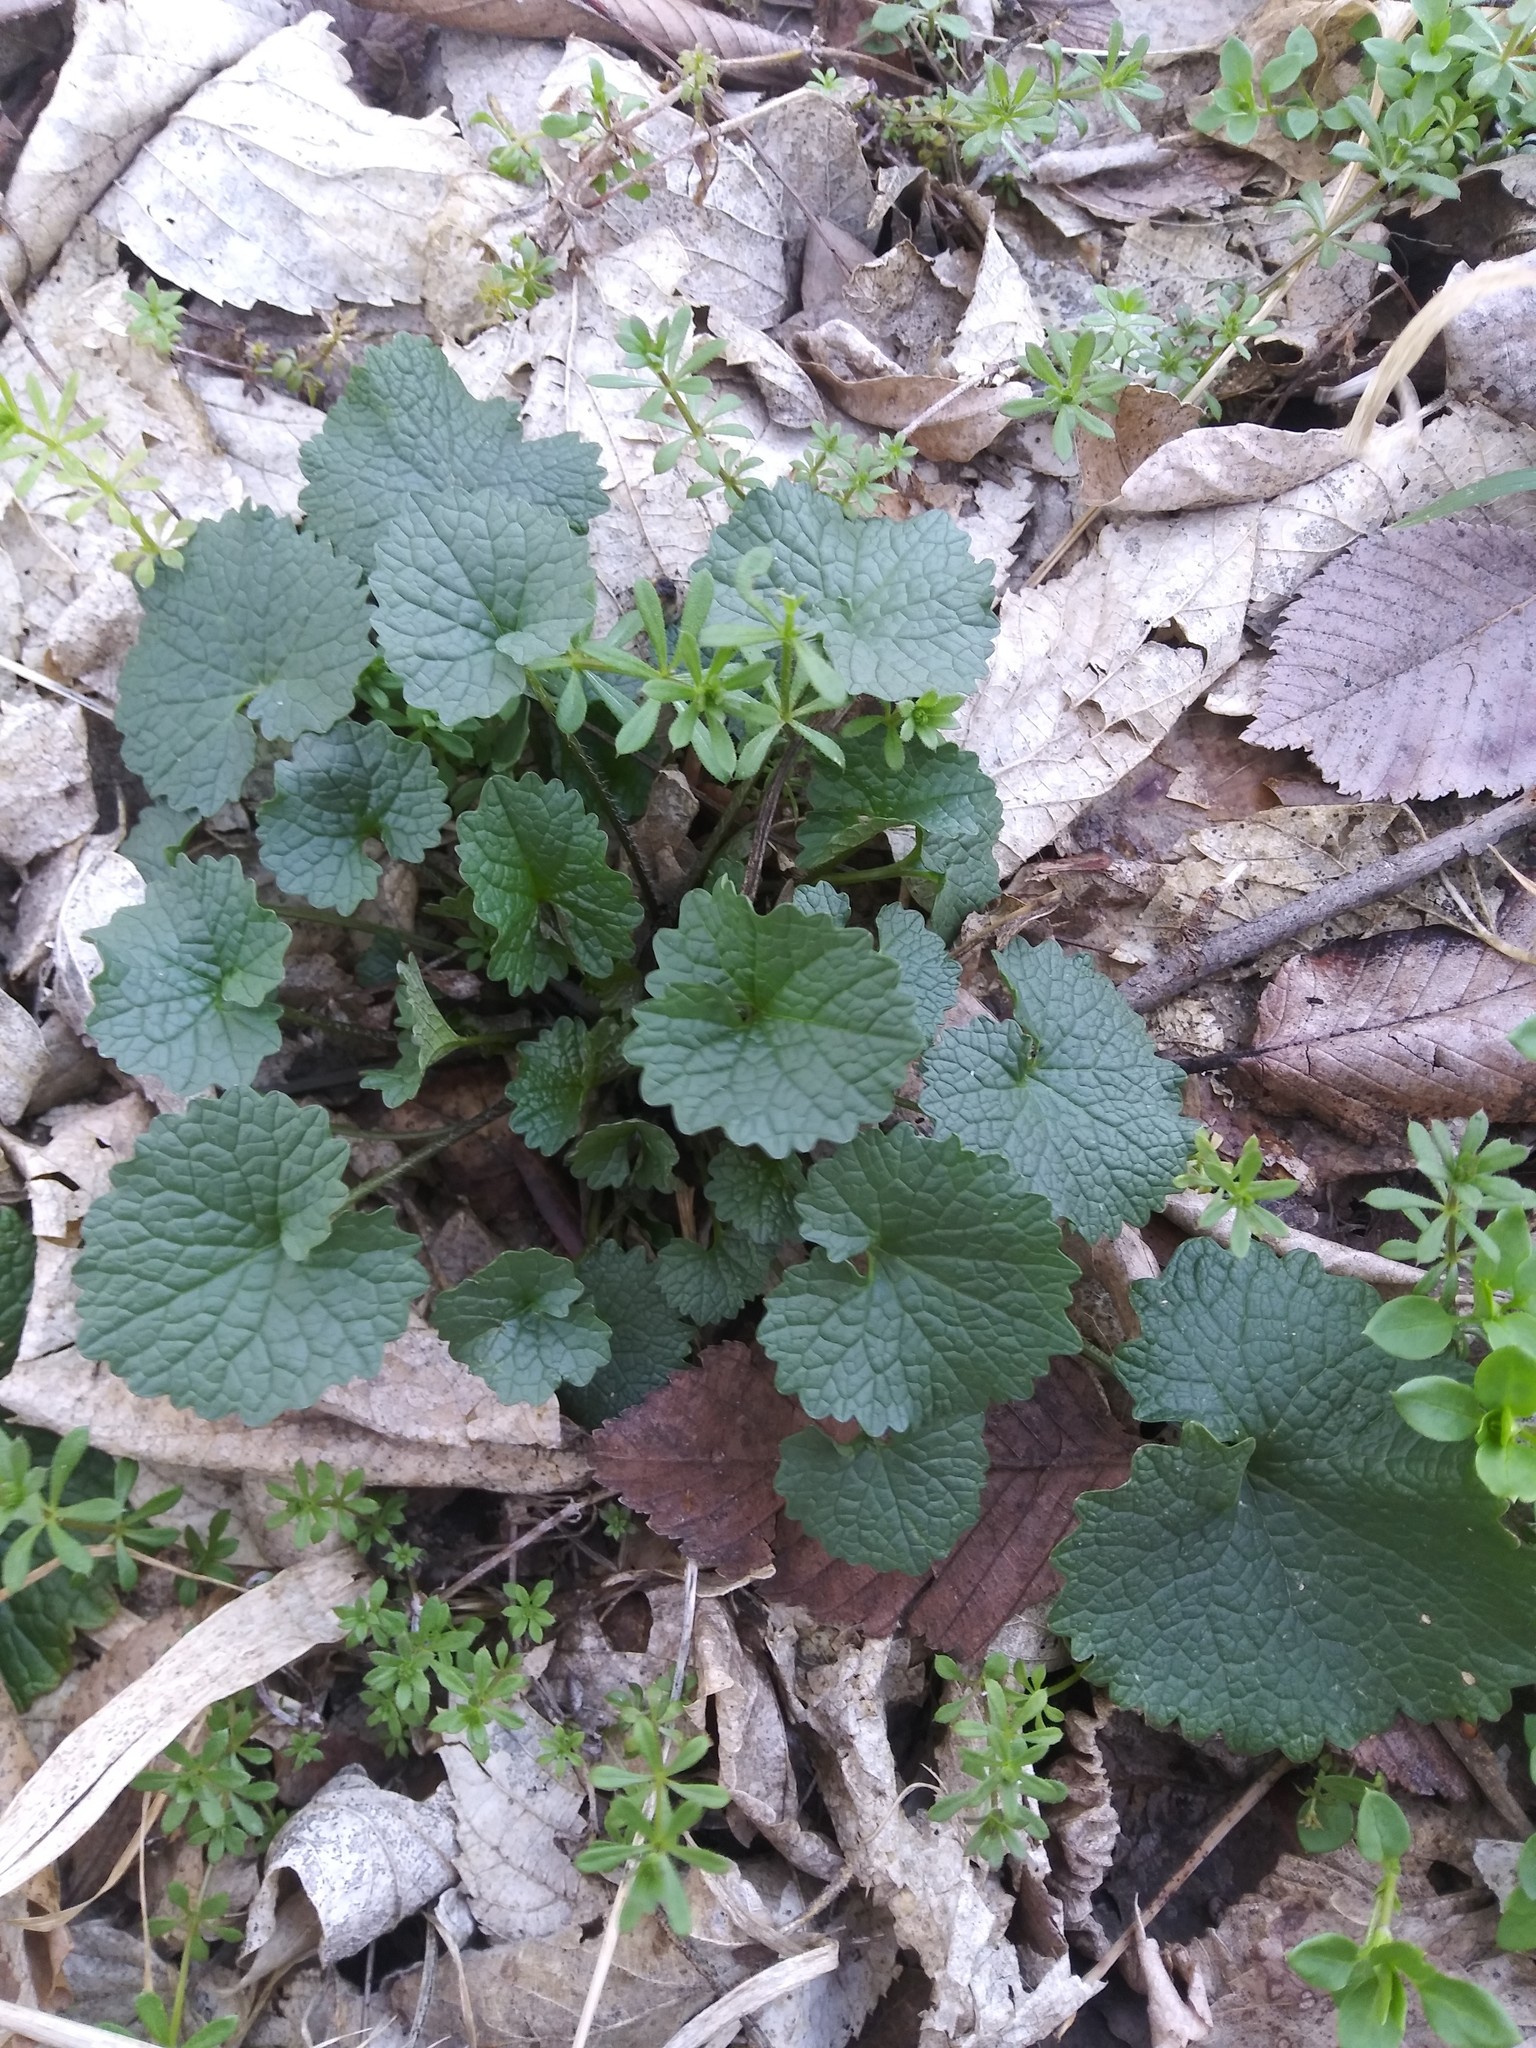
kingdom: Plantae
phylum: Tracheophyta
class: Magnoliopsida
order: Brassicales
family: Brassicaceae
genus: Alliaria
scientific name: Alliaria petiolata
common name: Garlic mustard
